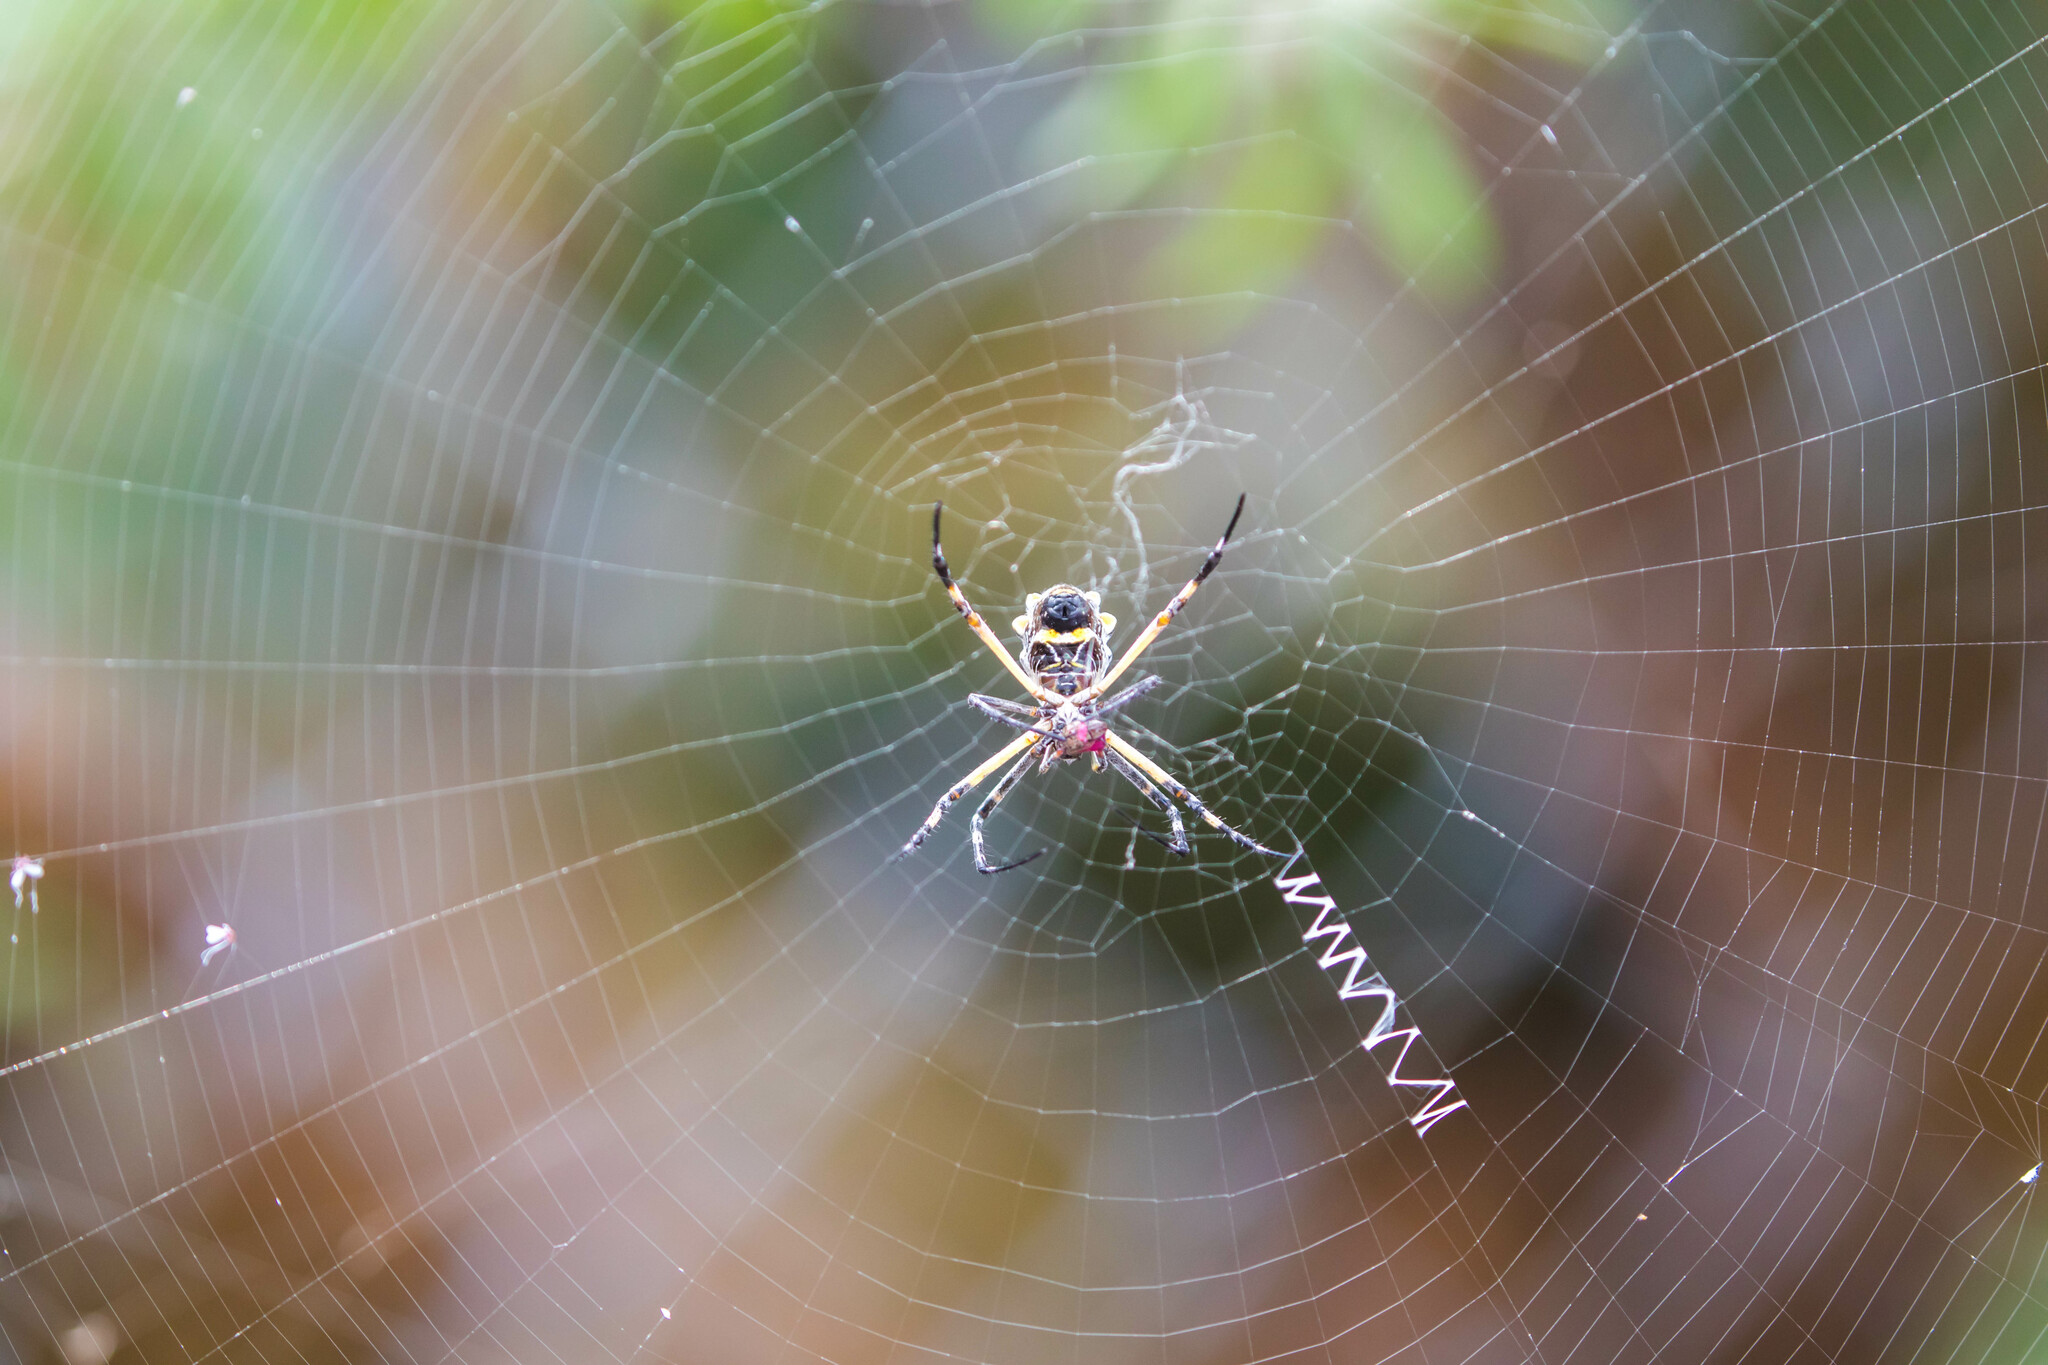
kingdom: Animalia
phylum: Arthropoda
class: Arachnida
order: Araneae
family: Araneidae
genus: Argiope
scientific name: Argiope argentata
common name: Orb weavers
